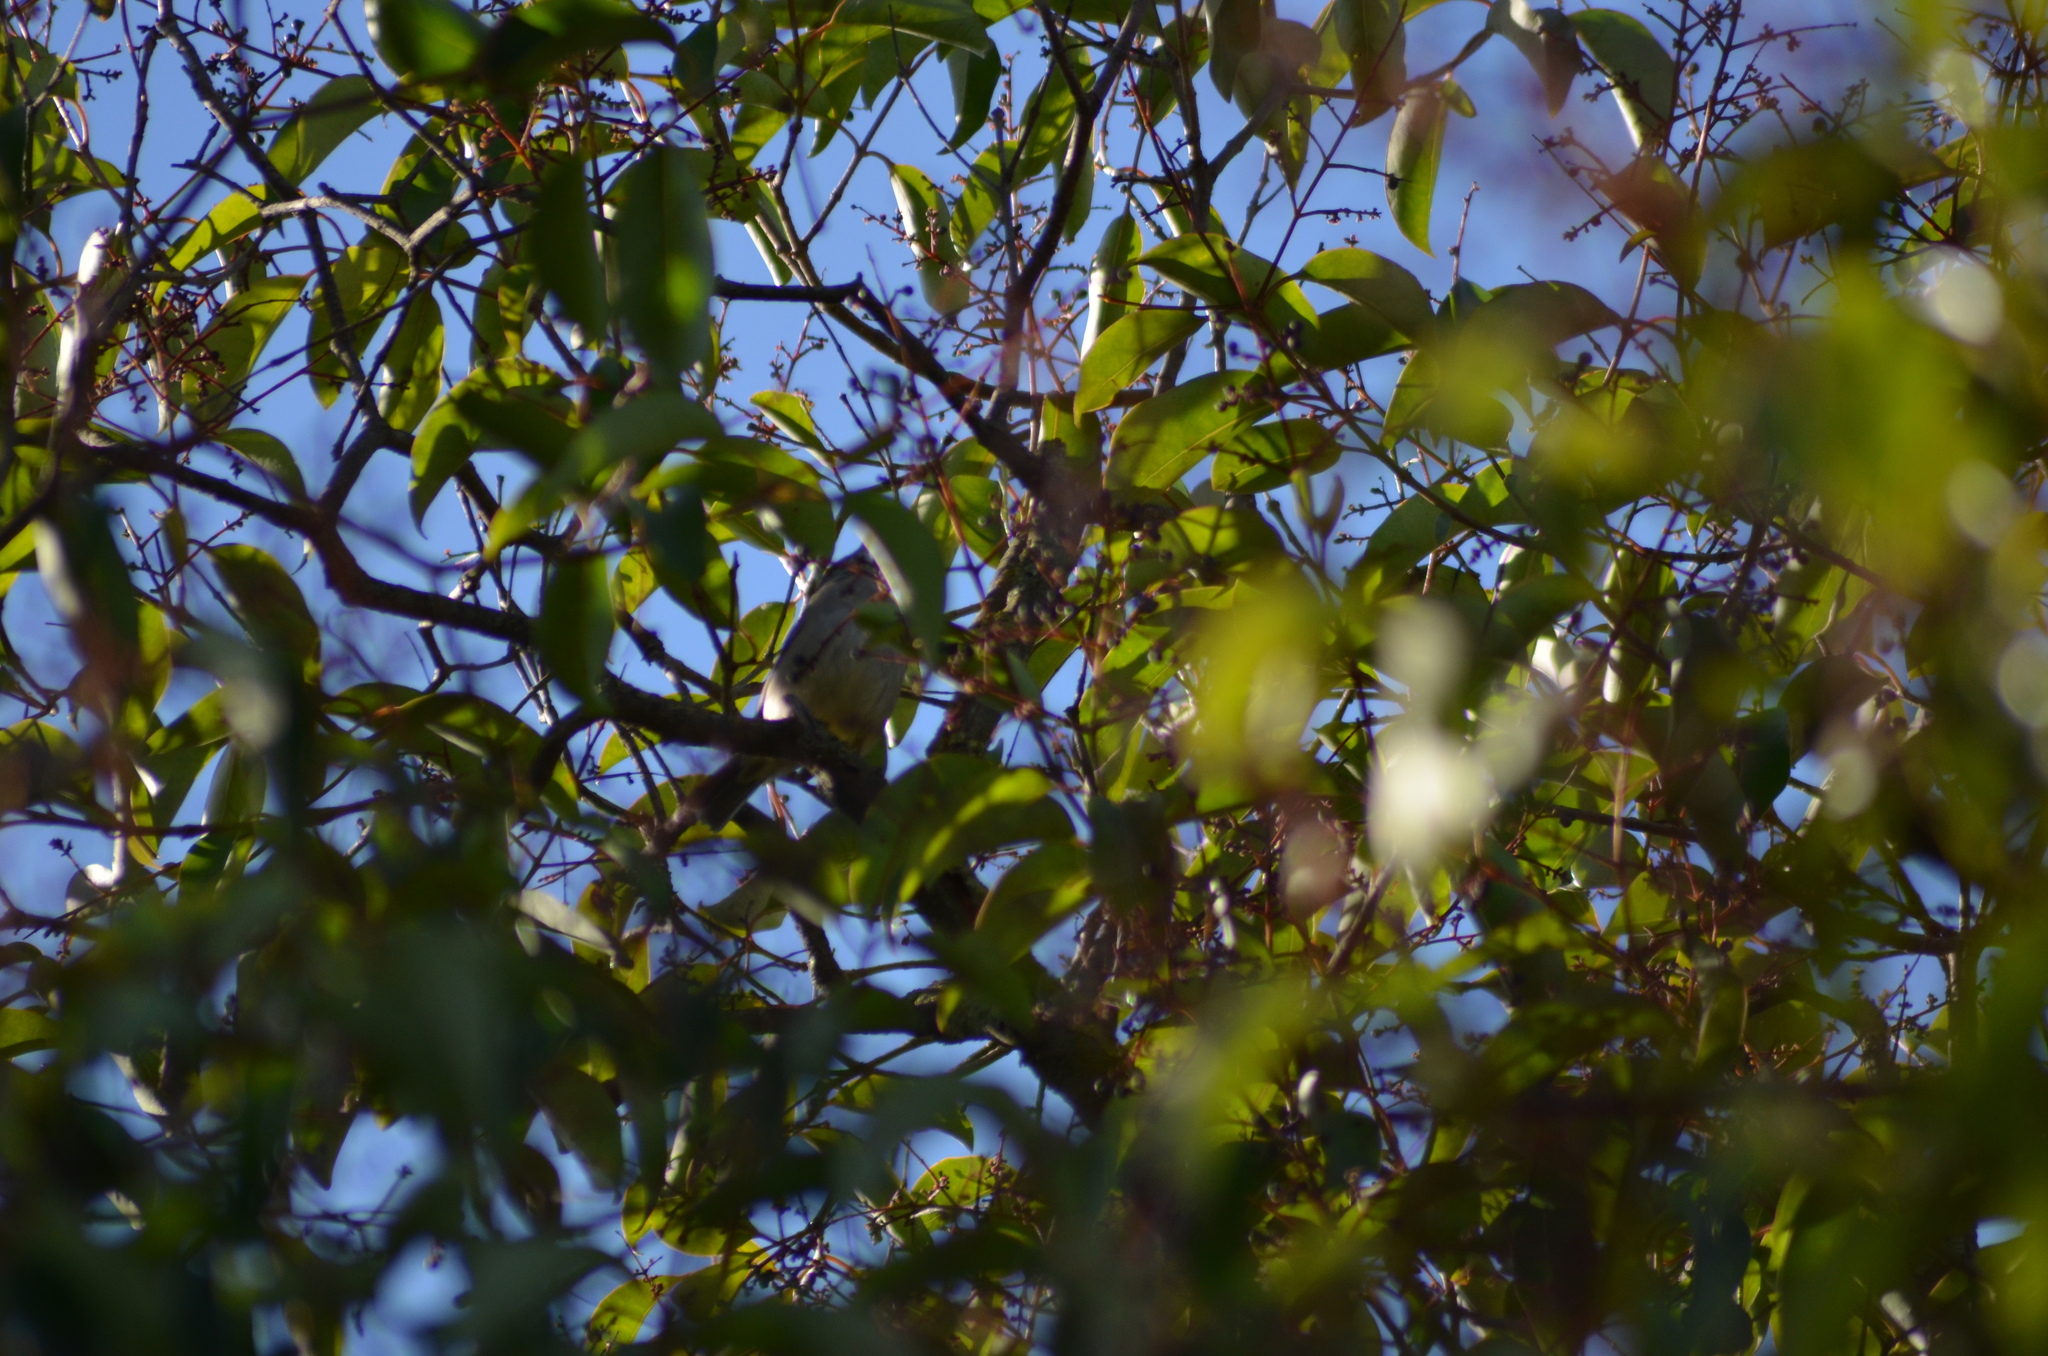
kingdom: Animalia
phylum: Chordata
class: Aves
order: Passeriformes
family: Sylviidae
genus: Sylvia
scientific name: Sylvia atricapilla
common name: Eurasian blackcap
